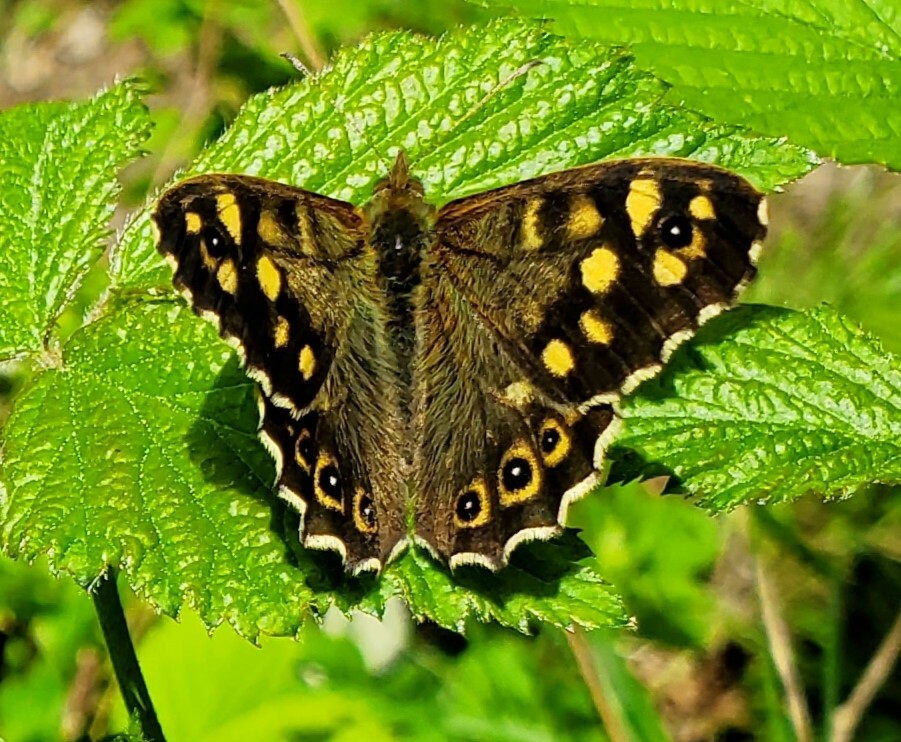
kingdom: Animalia
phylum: Arthropoda
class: Insecta
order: Lepidoptera
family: Nymphalidae
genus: Pararge
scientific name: Pararge aegeria
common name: Speckled wood
